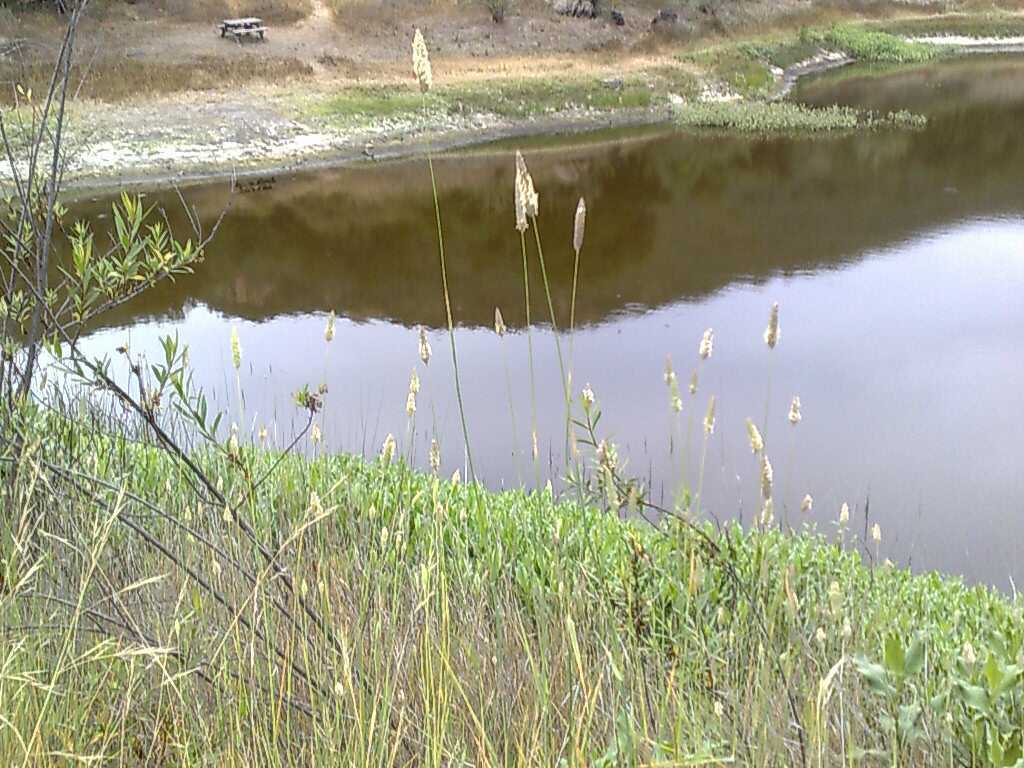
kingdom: Plantae
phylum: Tracheophyta
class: Magnoliopsida
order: Asterales
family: Asteraceae
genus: Baccharis
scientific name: Baccharis salicifolia
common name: Sticky baccharis
